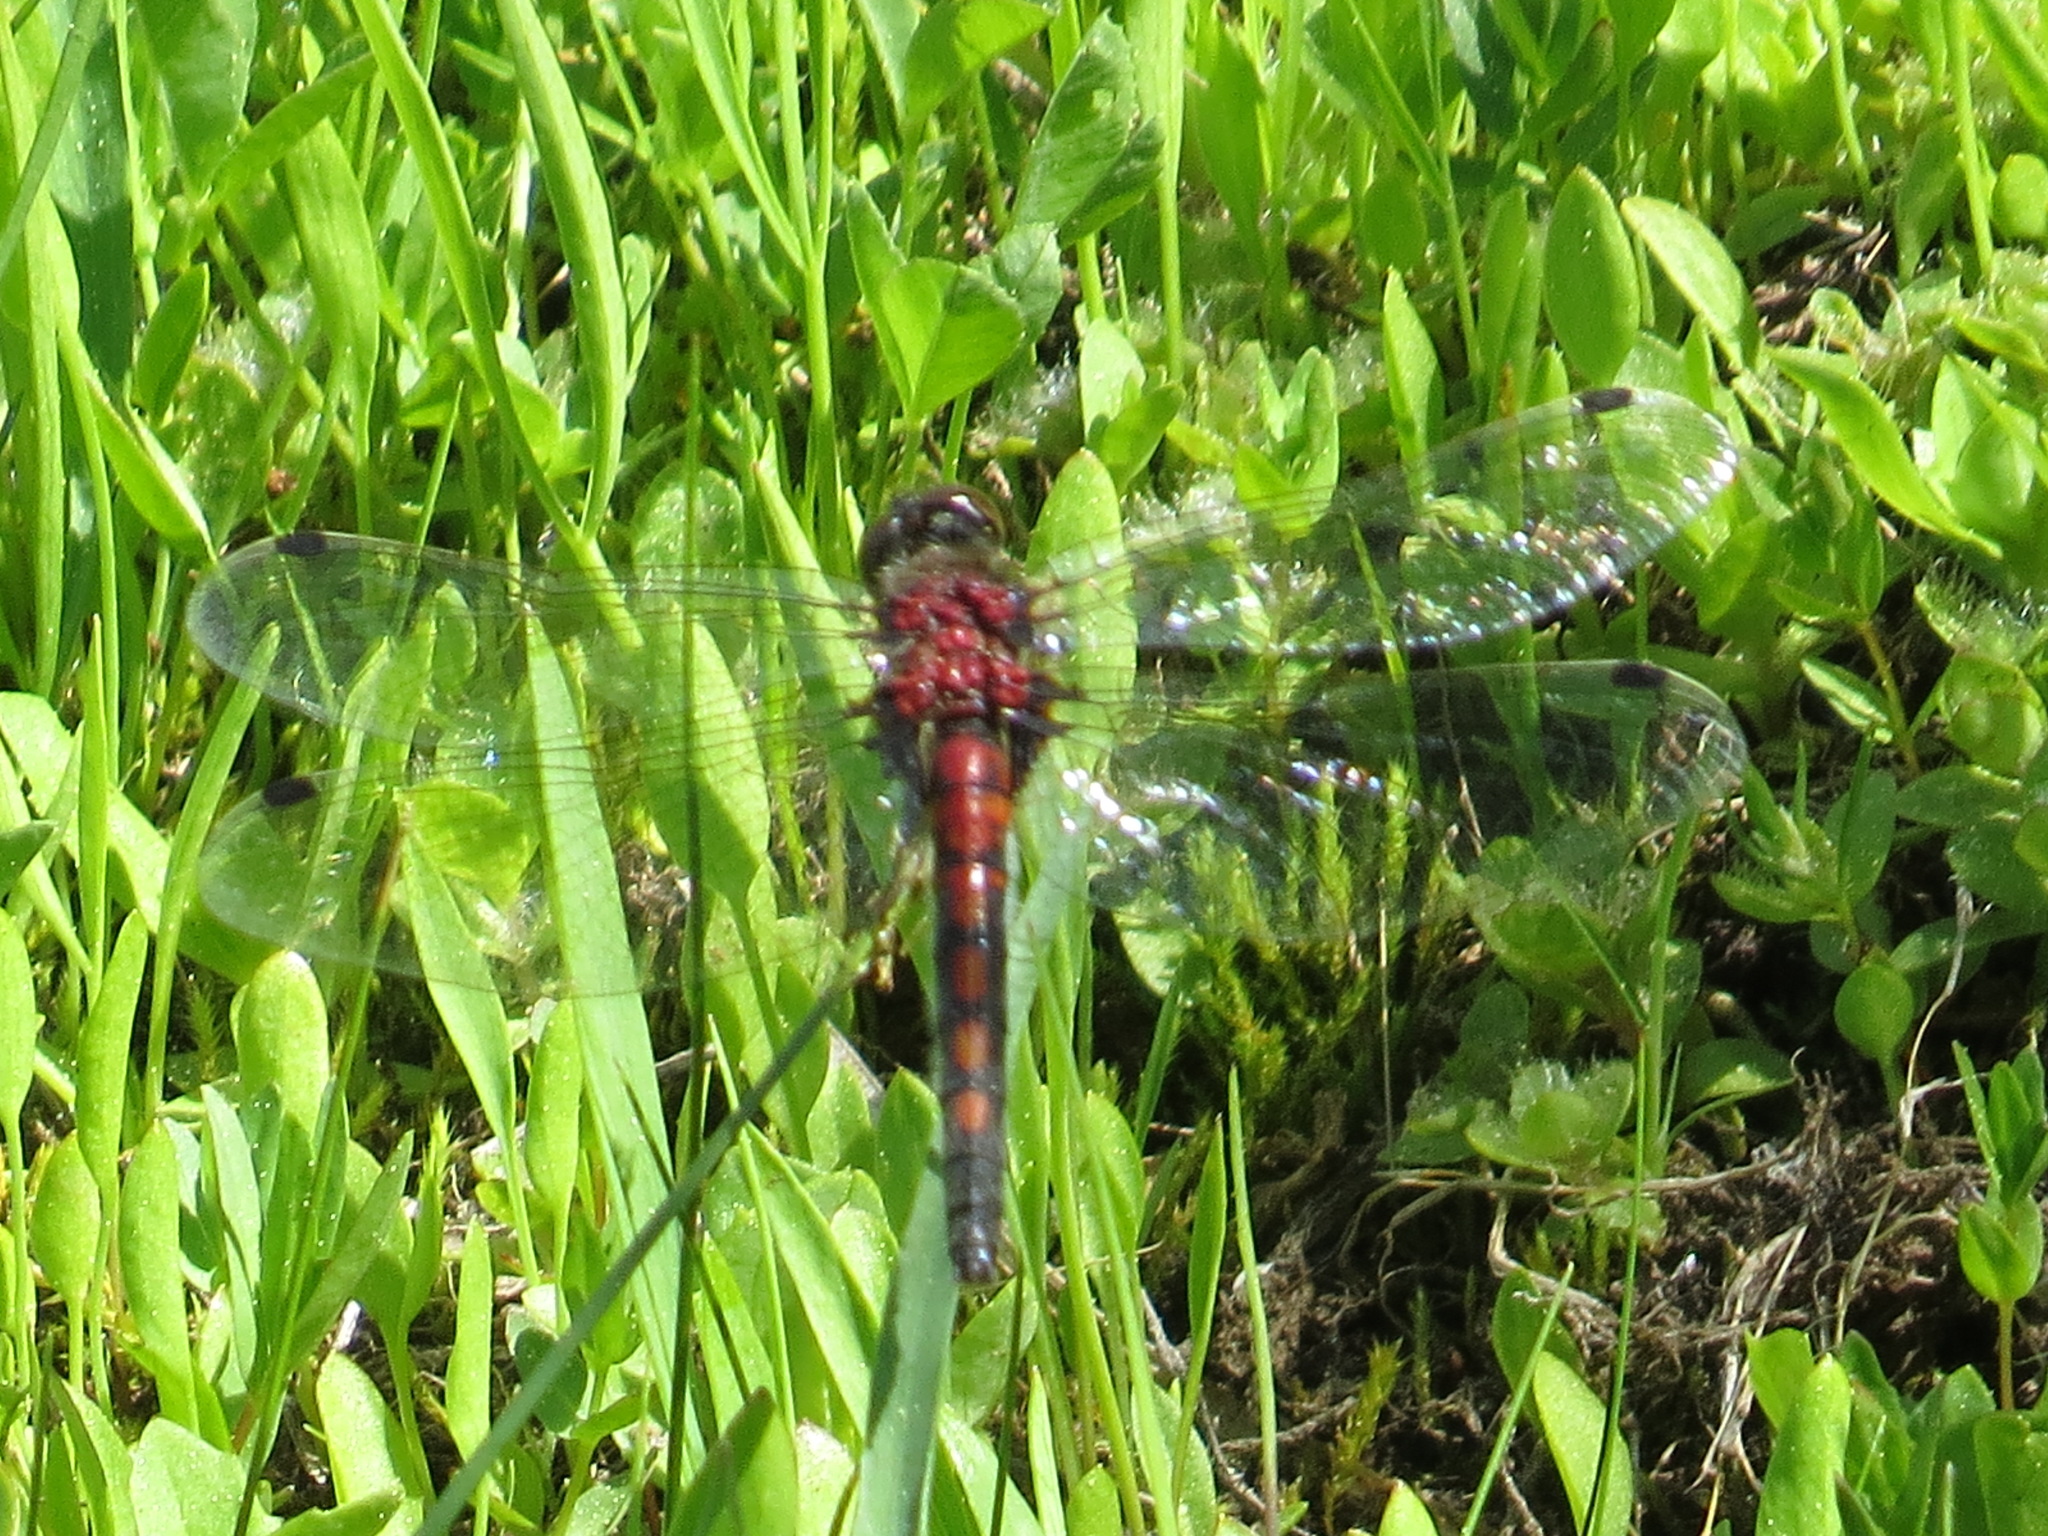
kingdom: Animalia
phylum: Arthropoda
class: Insecta
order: Odonata
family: Libellulidae
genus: Leucorrhinia
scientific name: Leucorrhinia hudsonica
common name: Hudsonian whiteface
